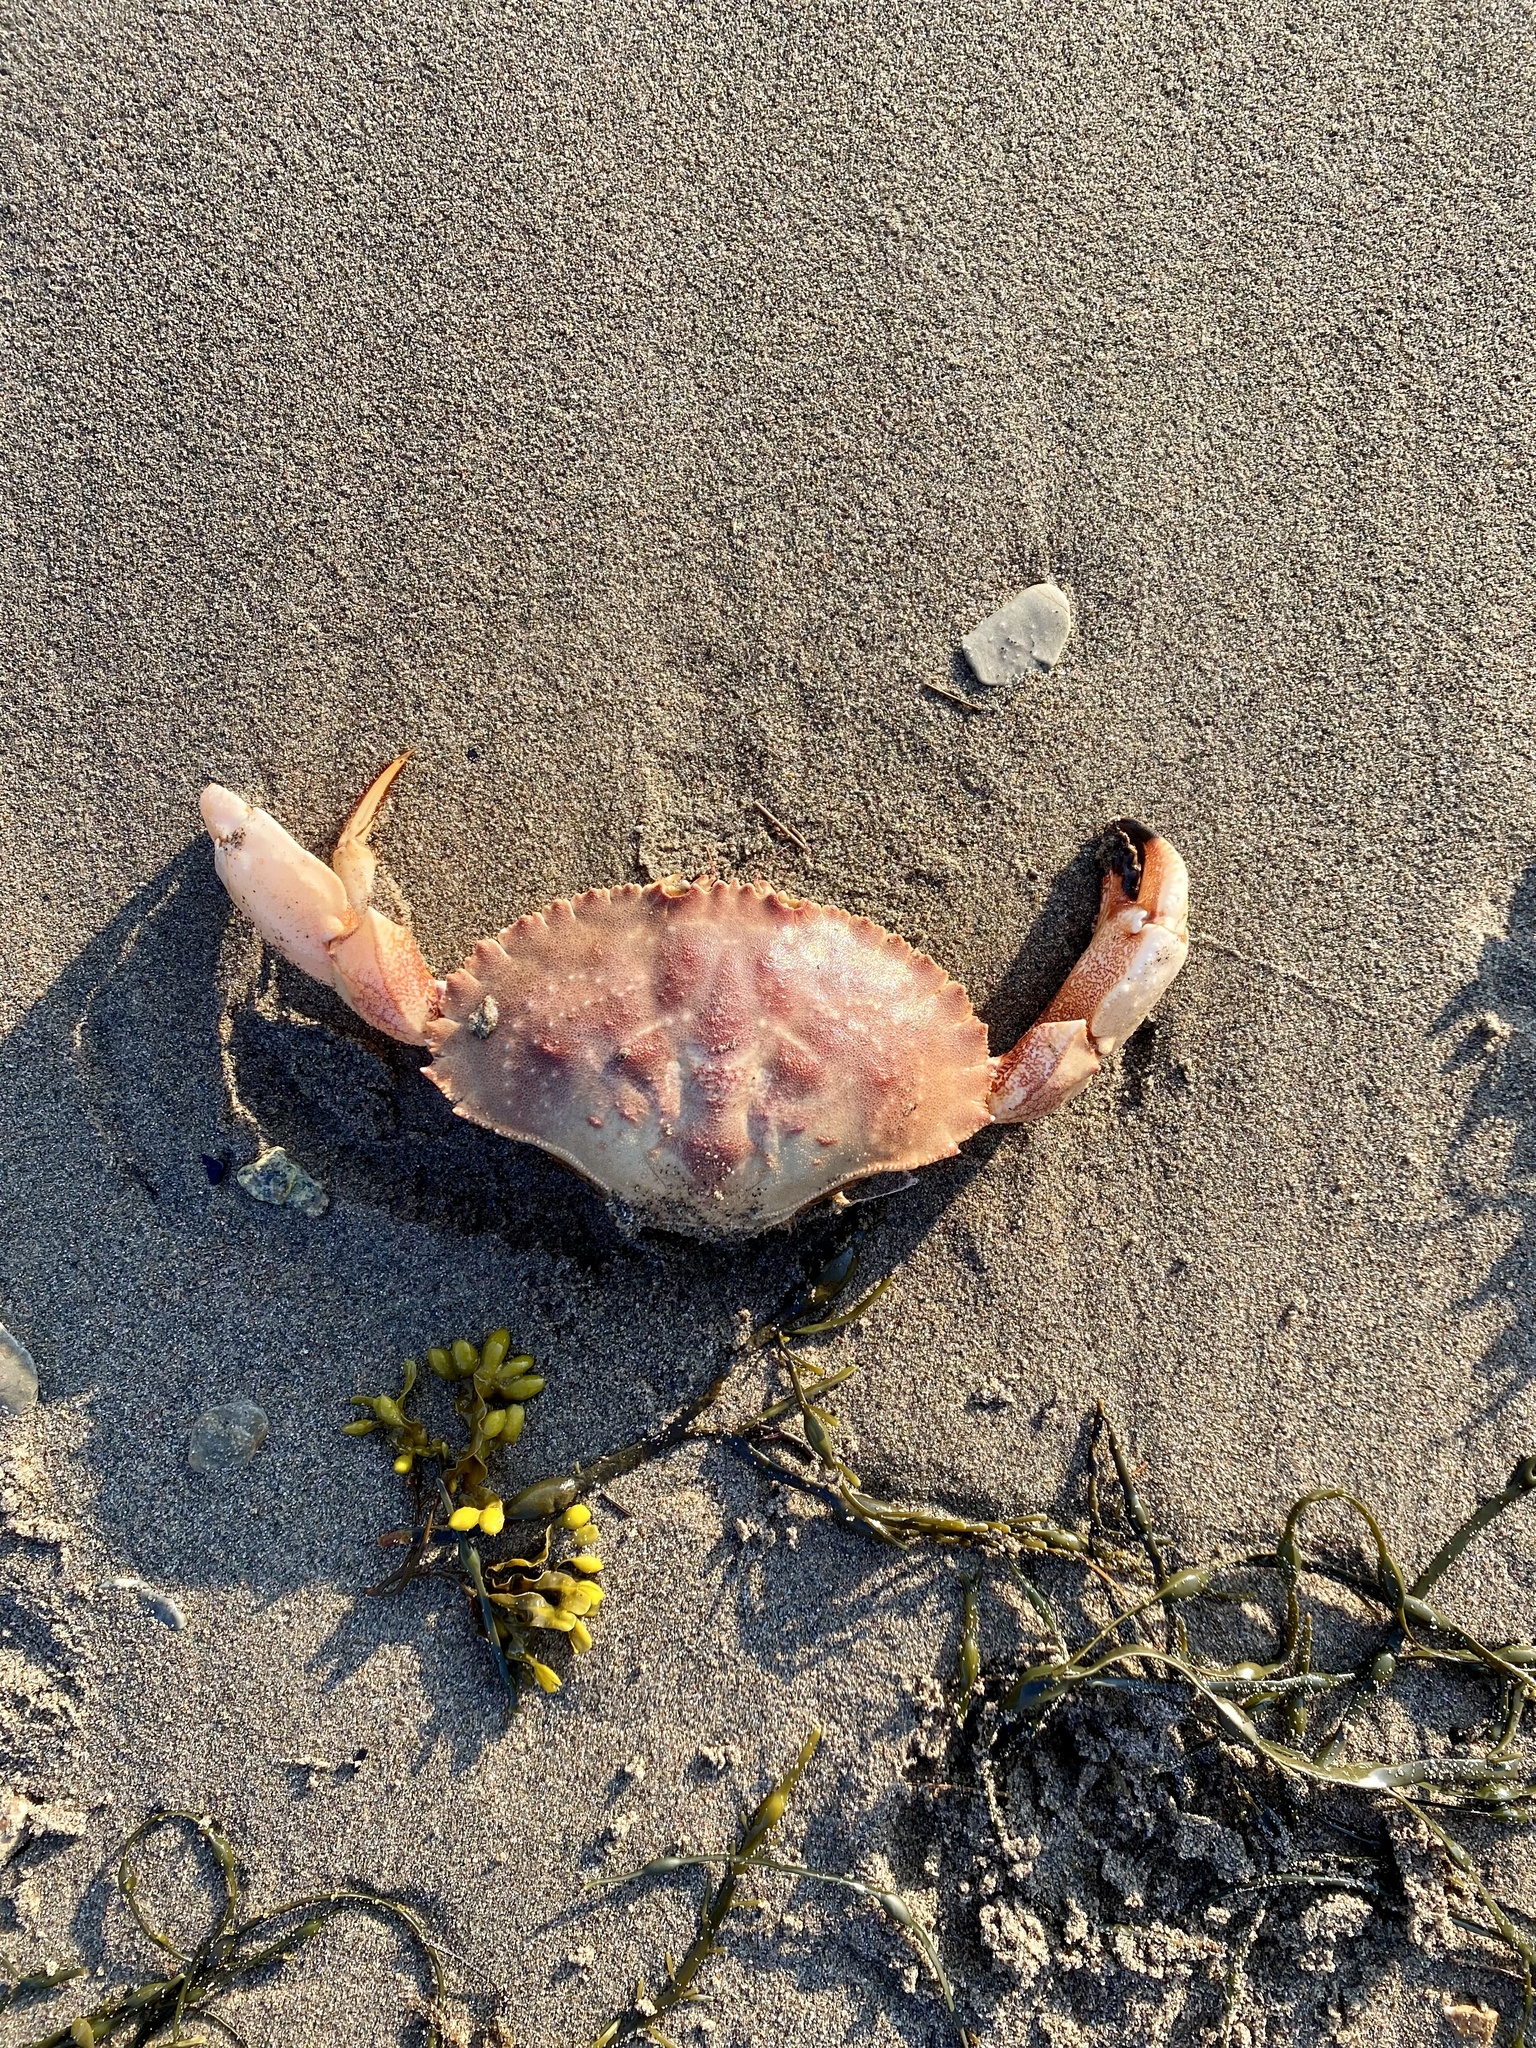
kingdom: Animalia
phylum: Arthropoda
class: Malacostraca
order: Decapoda
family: Cancridae
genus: Cancer
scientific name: Cancer borealis
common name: Jonah crab
